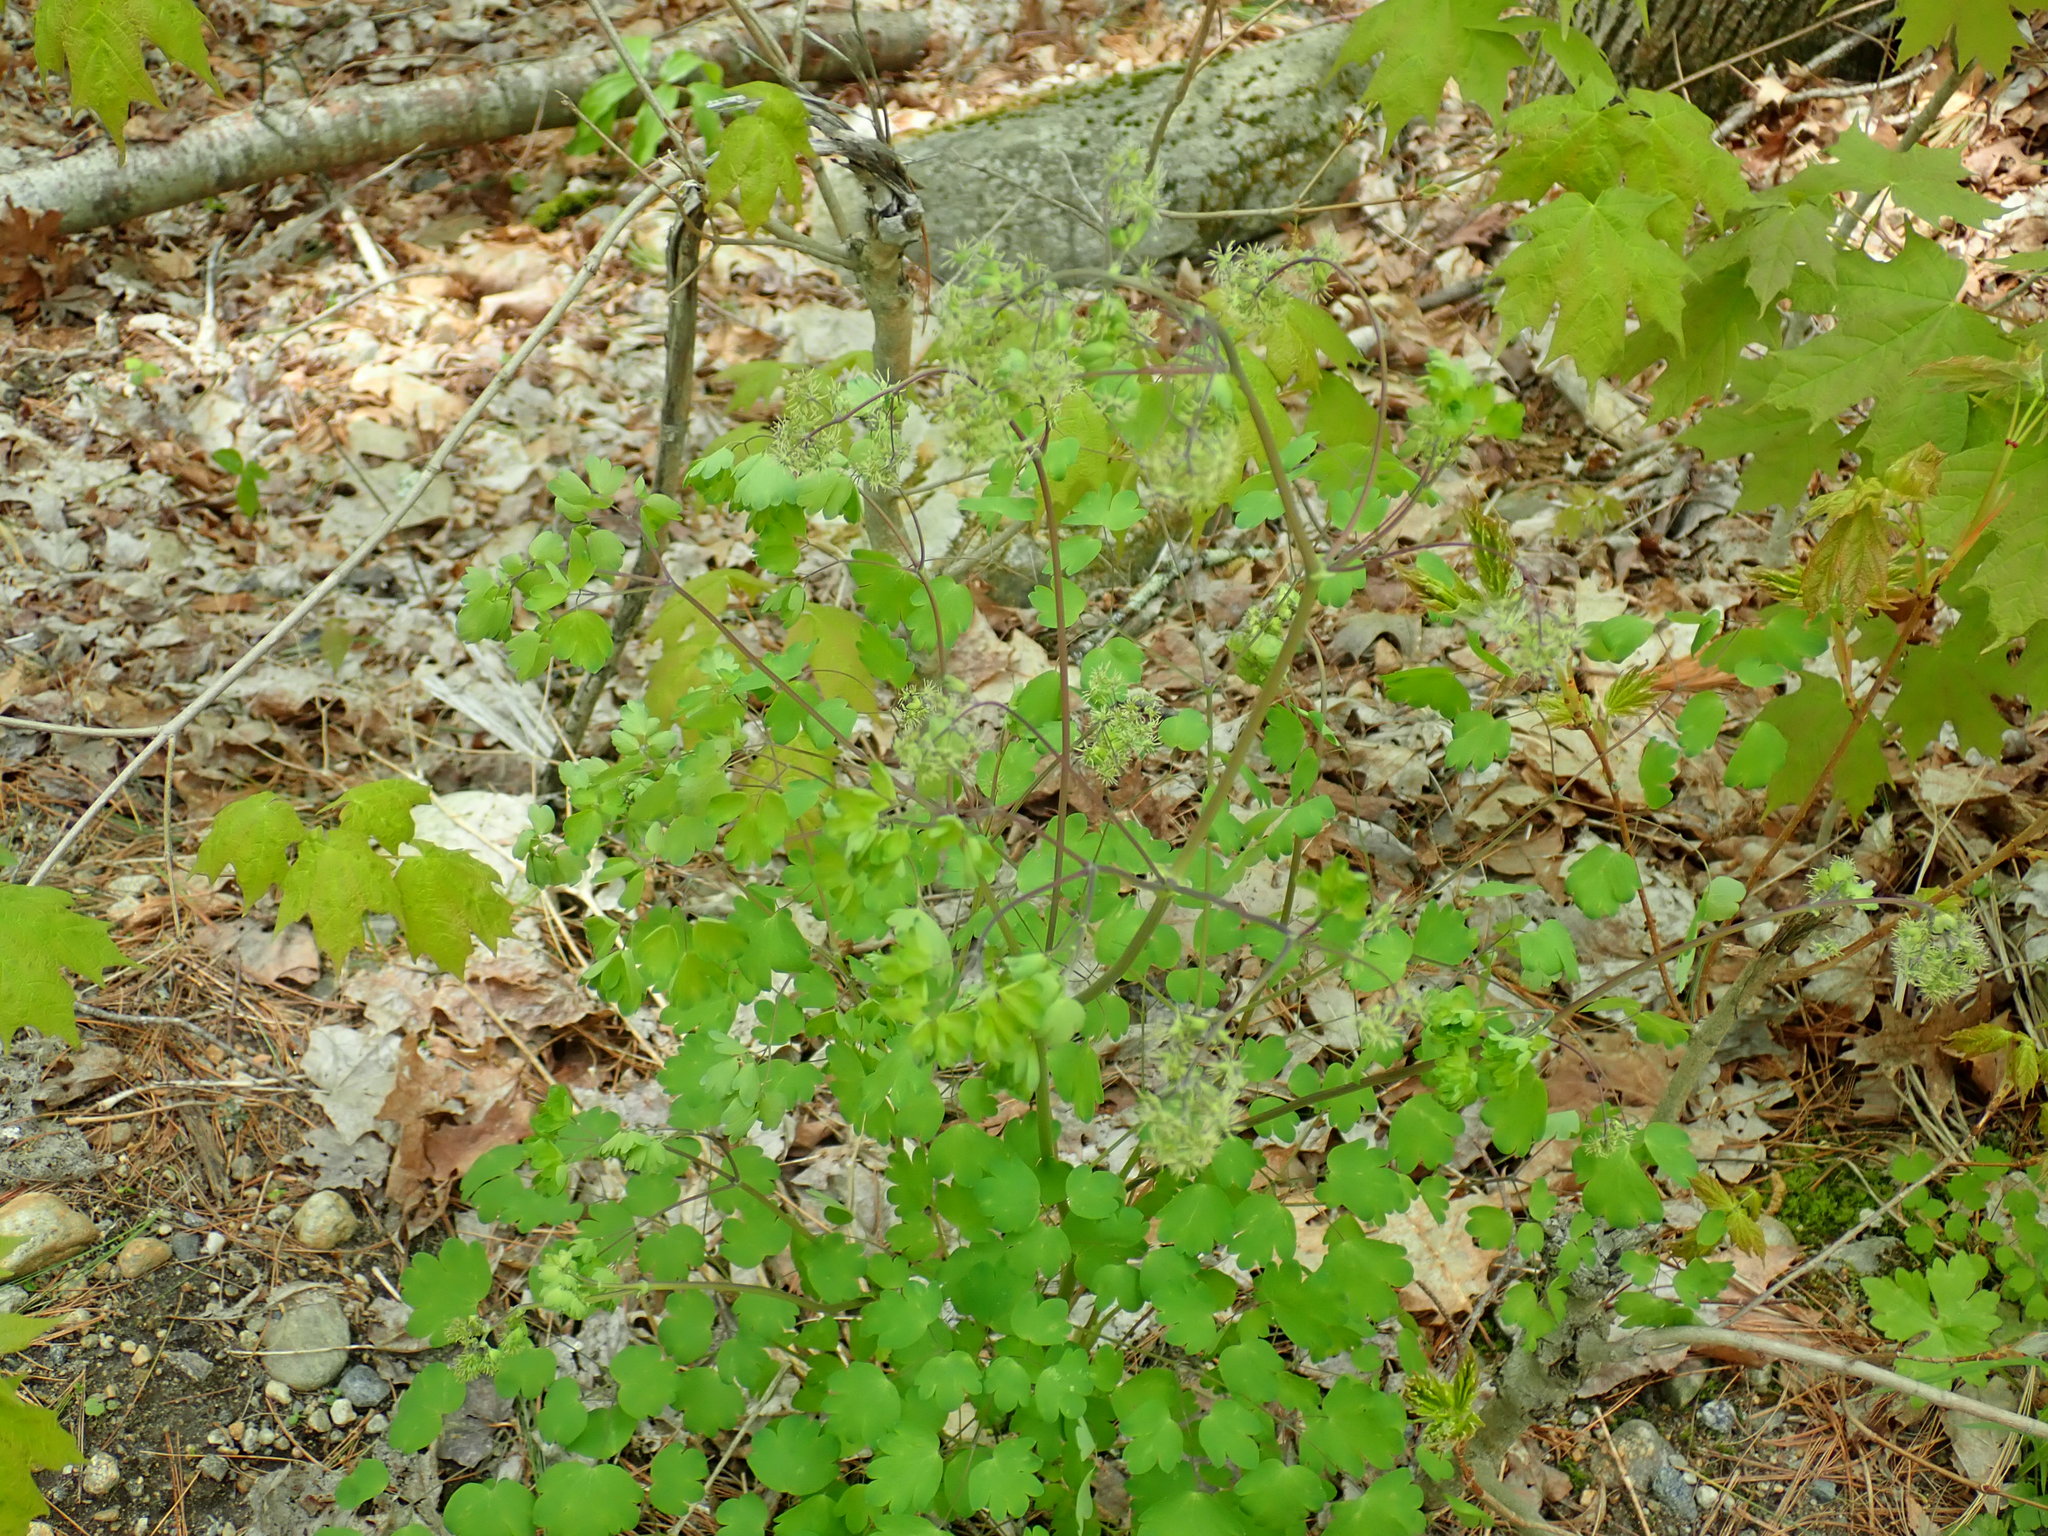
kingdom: Plantae
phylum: Tracheophyta
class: Magnoliopsida
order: Ranunculales
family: Ranunculaceae
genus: Thalictrum
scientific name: Thalictrum dioicum
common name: Early meadow-rue
